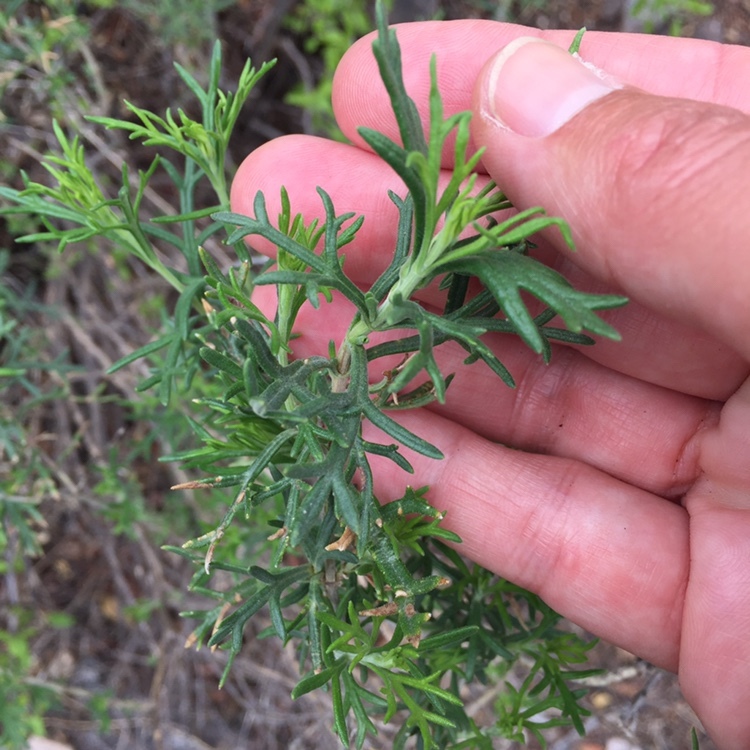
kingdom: Plantae
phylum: Tracheophyta
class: Magnoliopsida
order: Lamiales
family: Verbenaceae
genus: Junellia
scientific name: Junellia hookeriana
